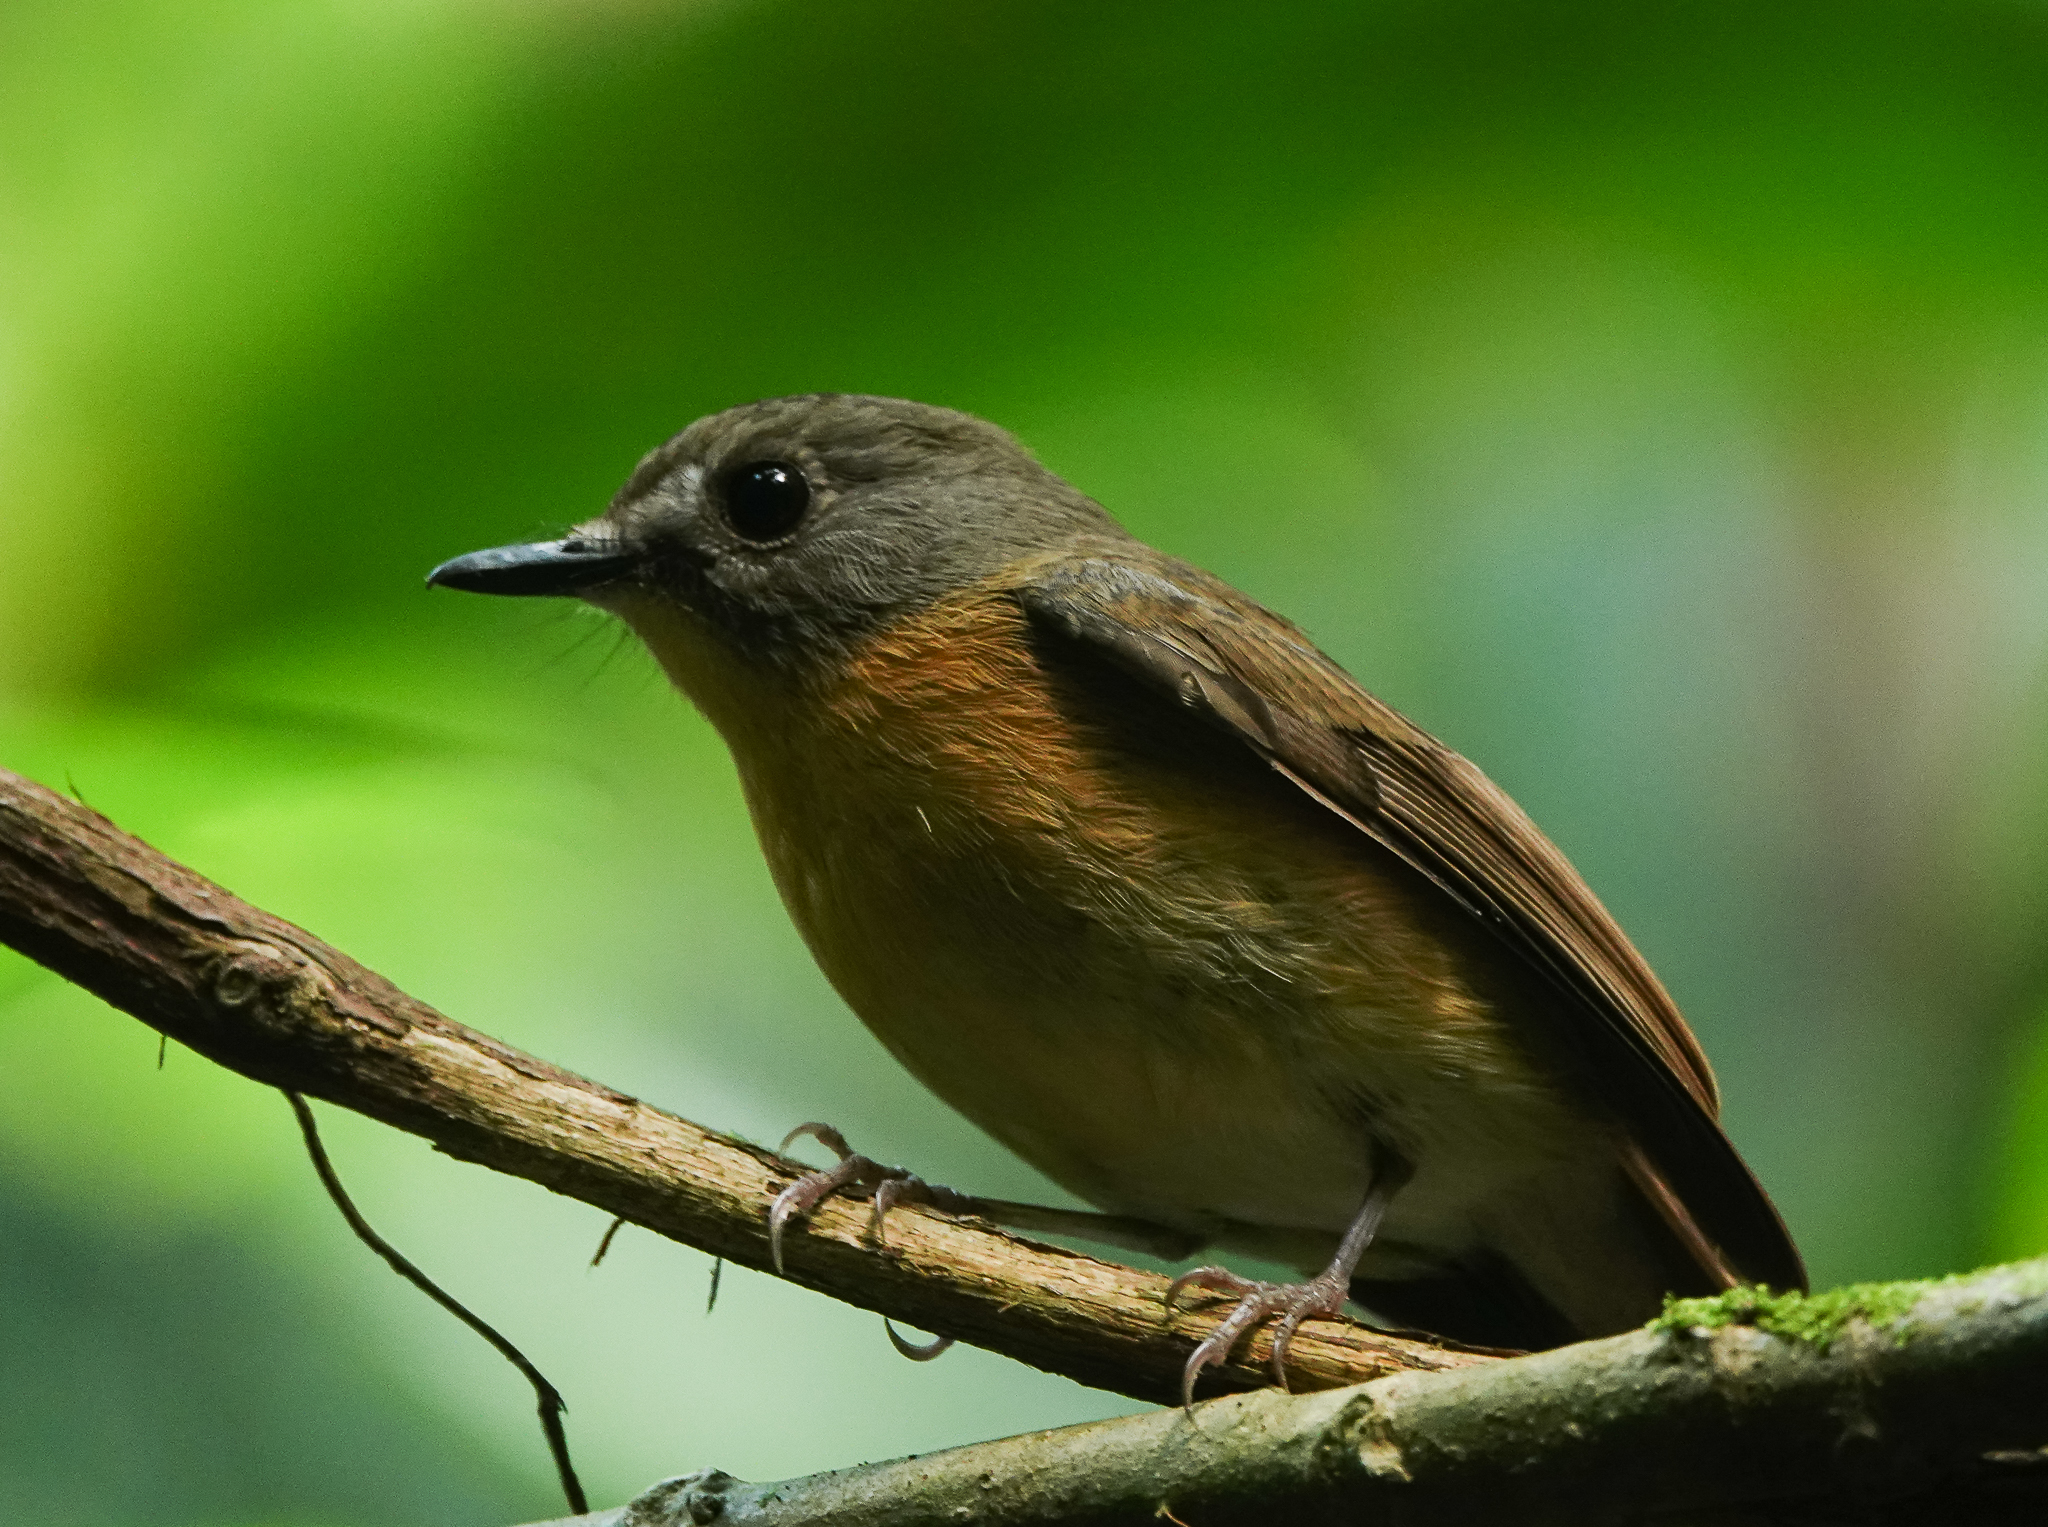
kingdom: Animalia
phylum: Chordata
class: Aves
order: Passeriformes
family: Muscicapidae
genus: Cyornis
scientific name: Cyornis poliogenys
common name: Pale-chinned blue flycatcher
